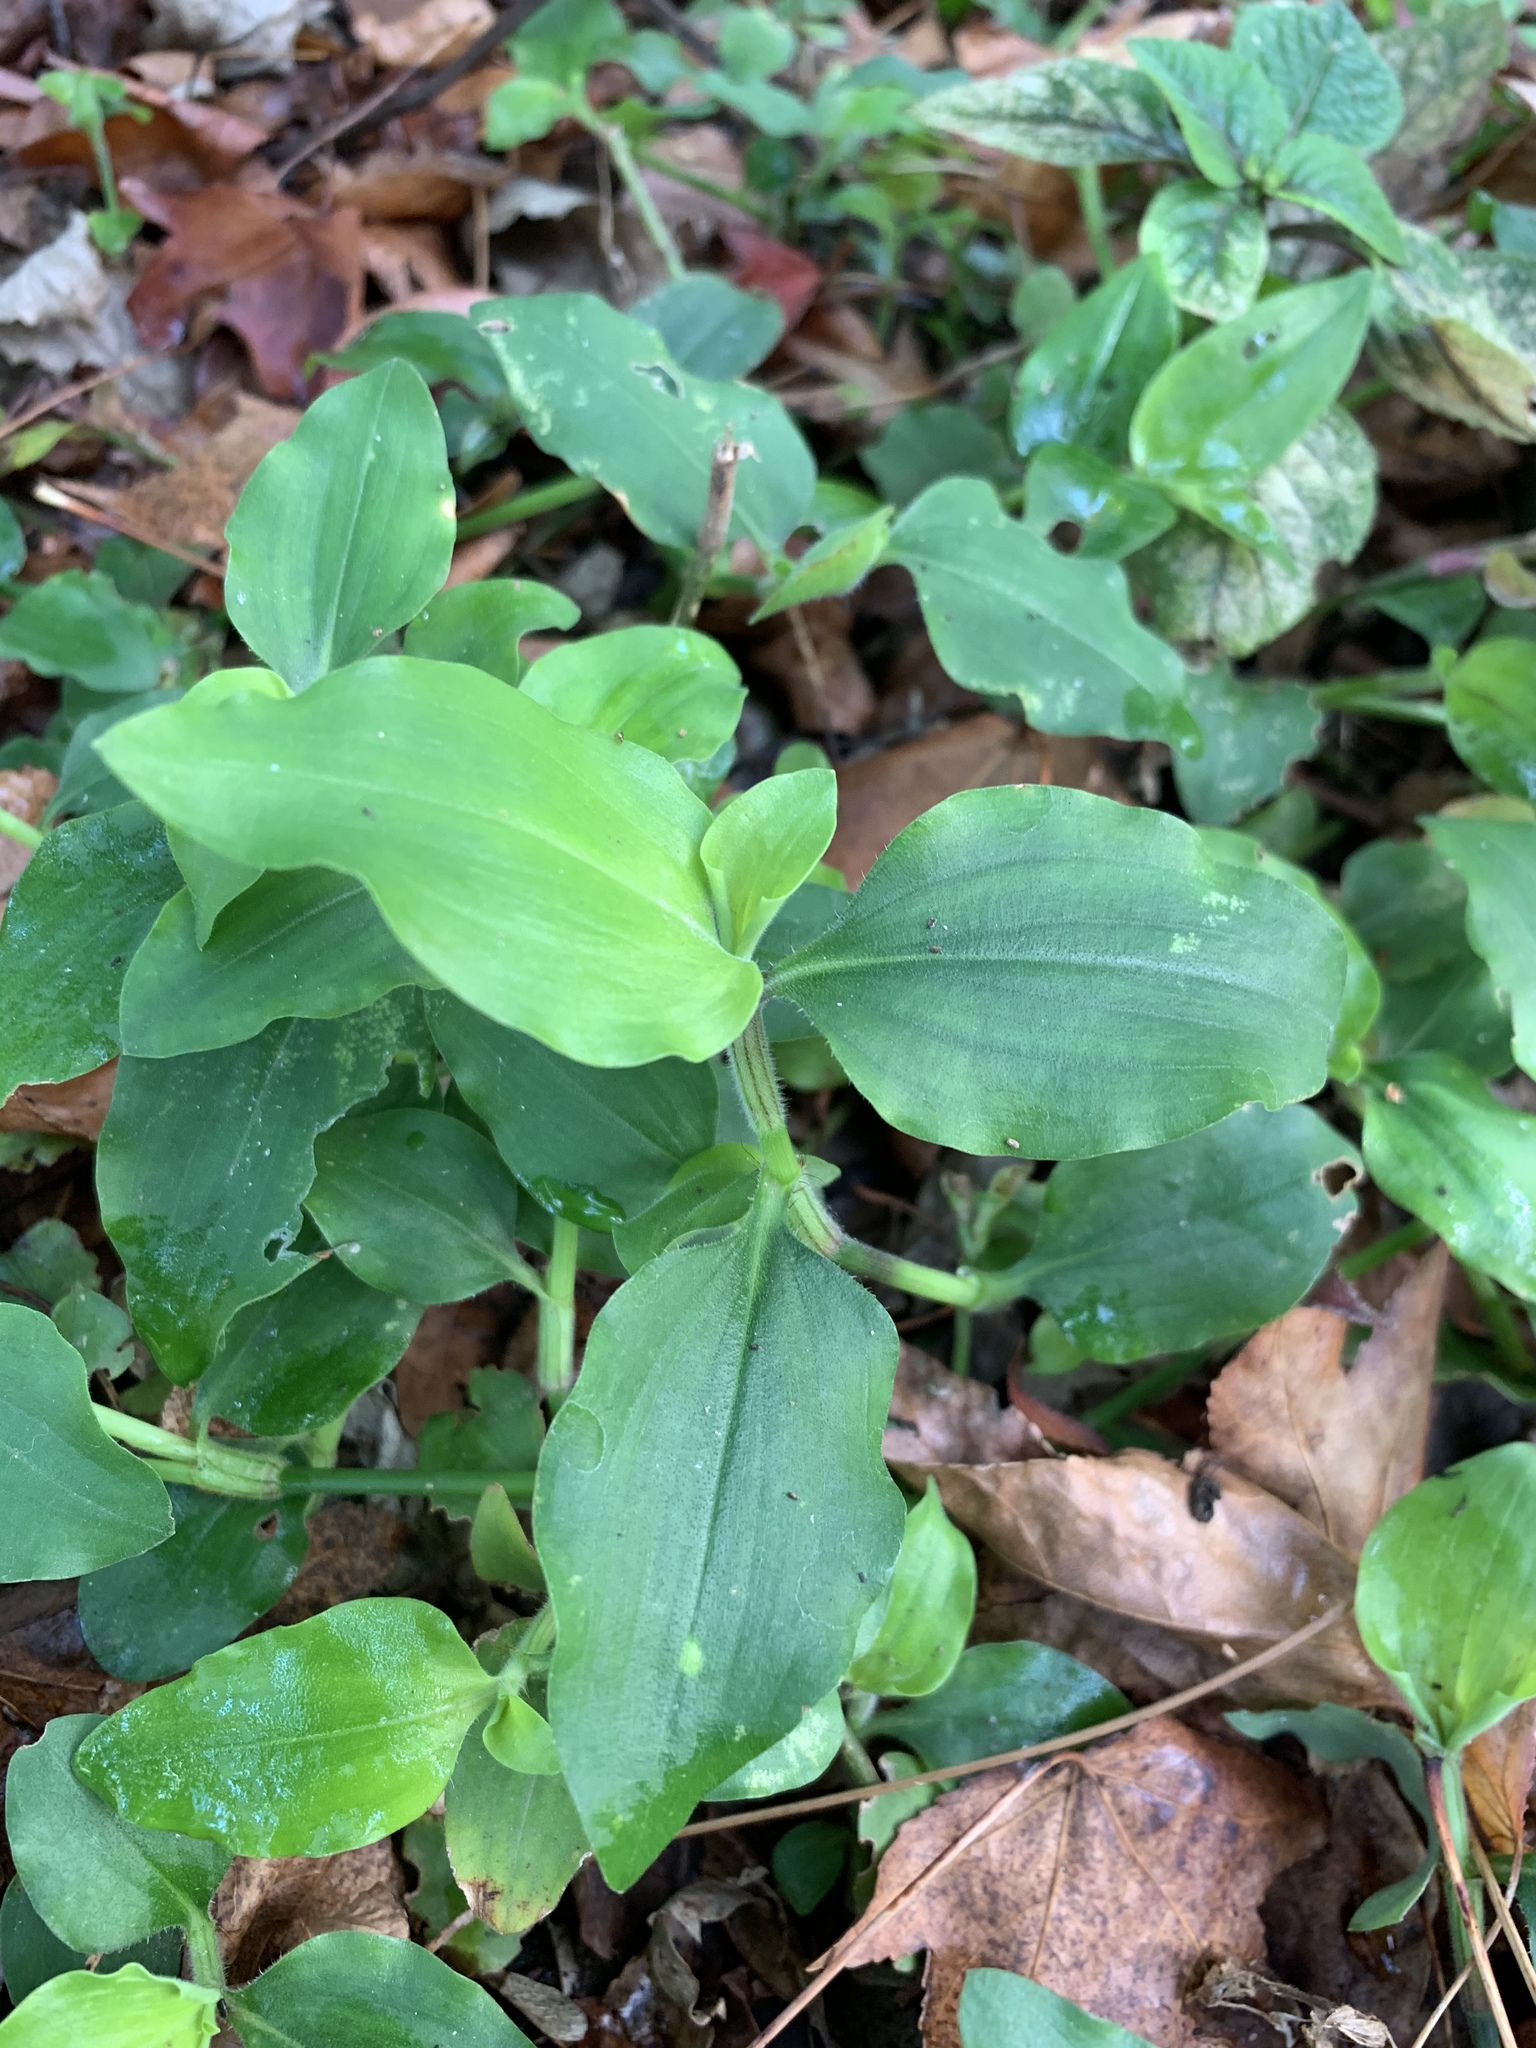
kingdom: Plantae
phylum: Tracheophyta
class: Liliopsida
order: Commelinales
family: Commelinaceae
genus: Commelina
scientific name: Commelina benghalensis
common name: Jio
